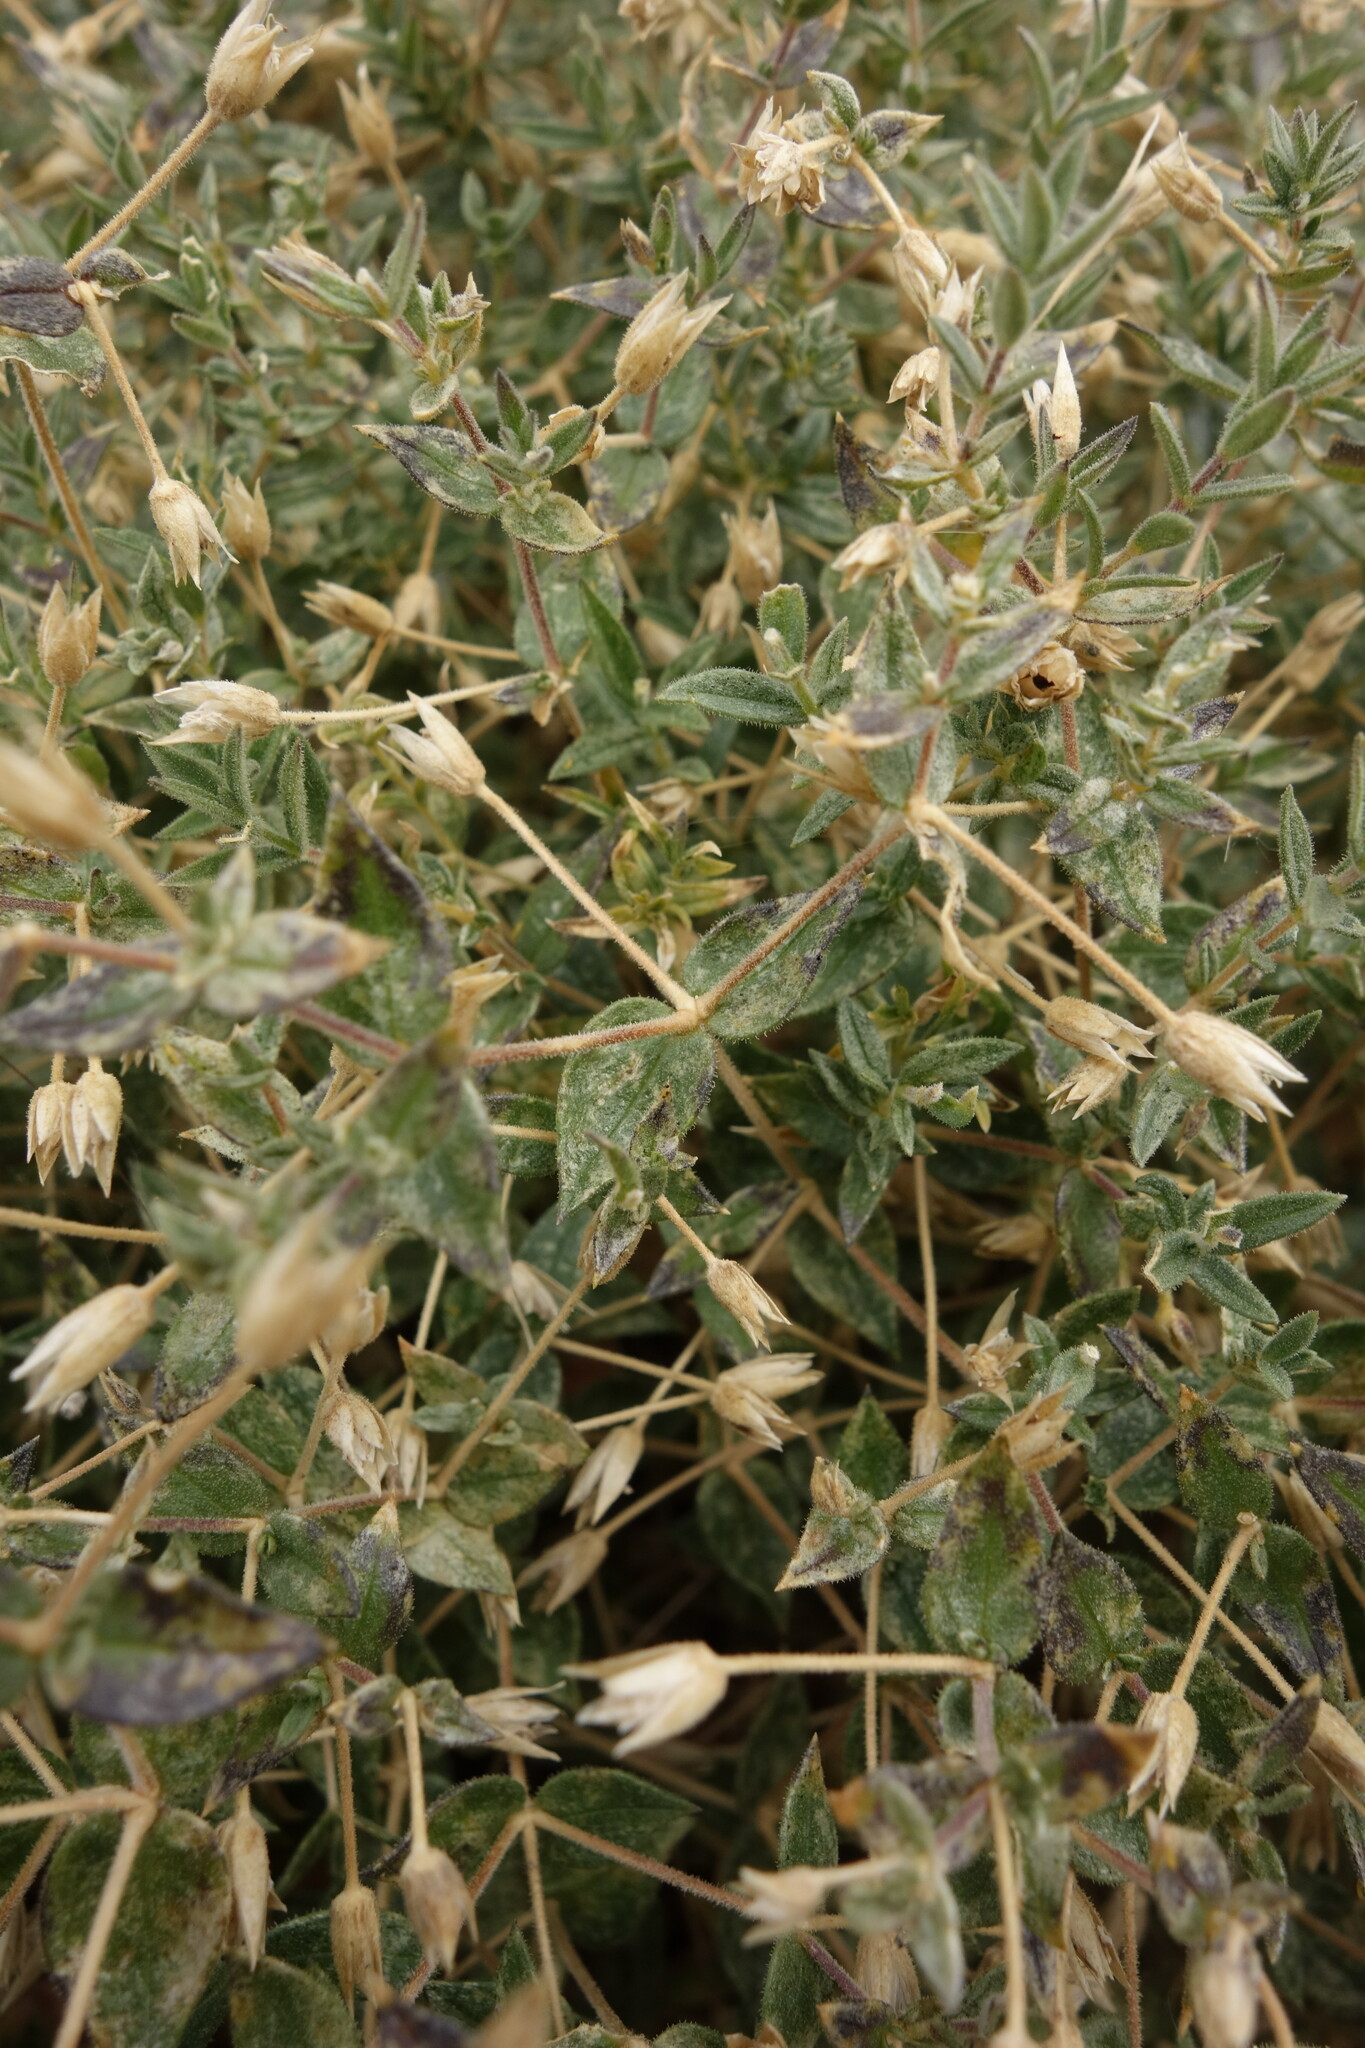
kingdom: Plantae
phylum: Tracheophyta
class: Magnoliopsida
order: Caryophyllales
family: Caryophyllaceae
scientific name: Caryophyllaceae
